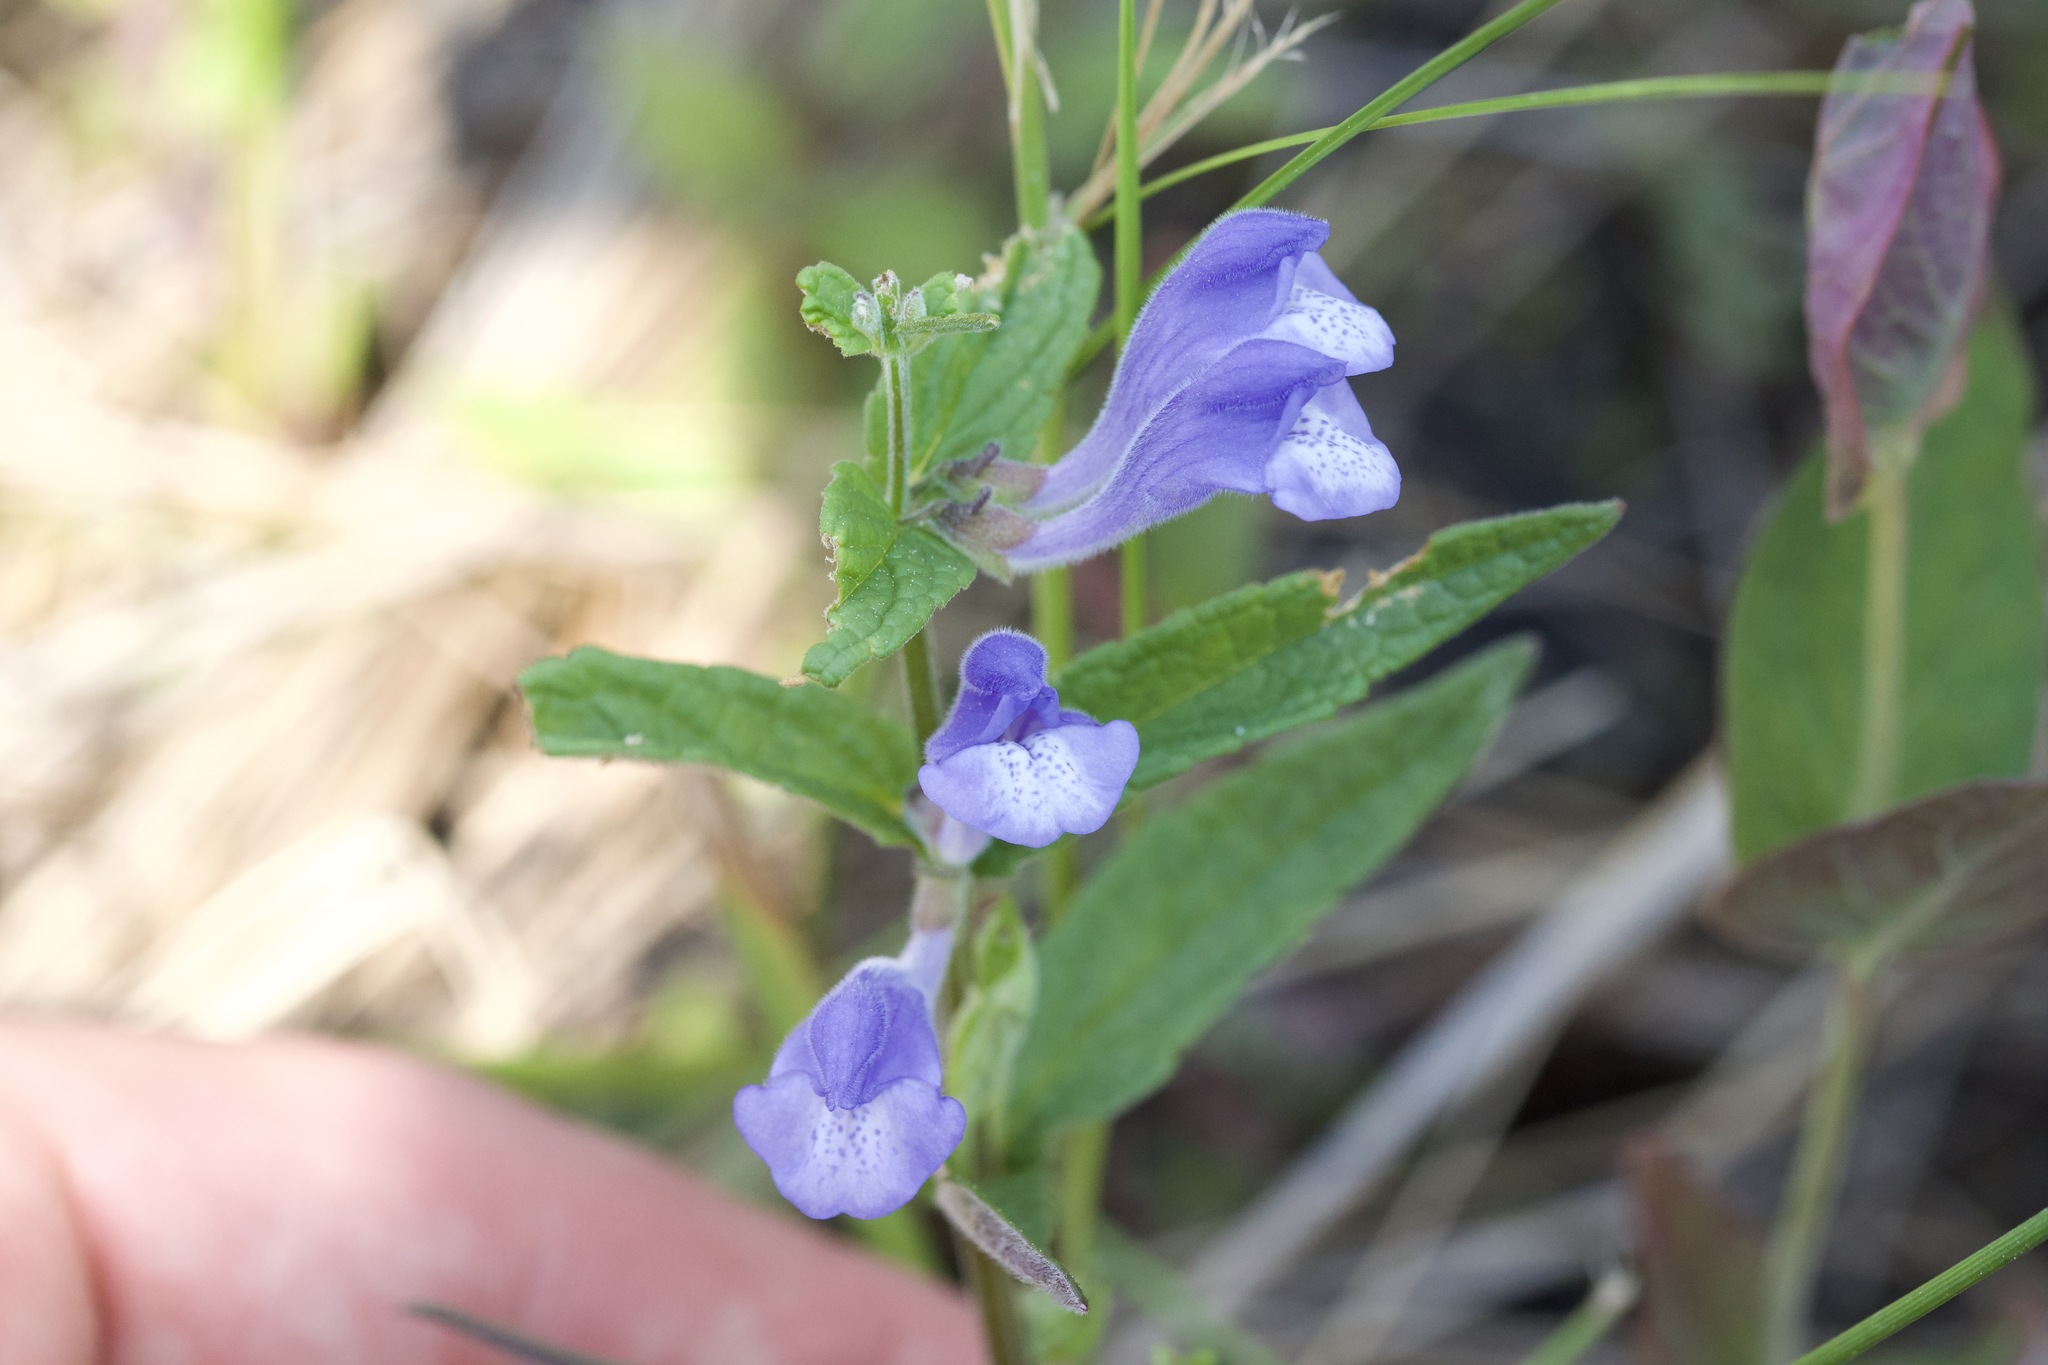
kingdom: Plantae
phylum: Tracheophyta
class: Magnoliopsida
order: Lamiales
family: Lamiaceae
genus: Scutellaria
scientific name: Scutellaria galericulata
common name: Skullcap
